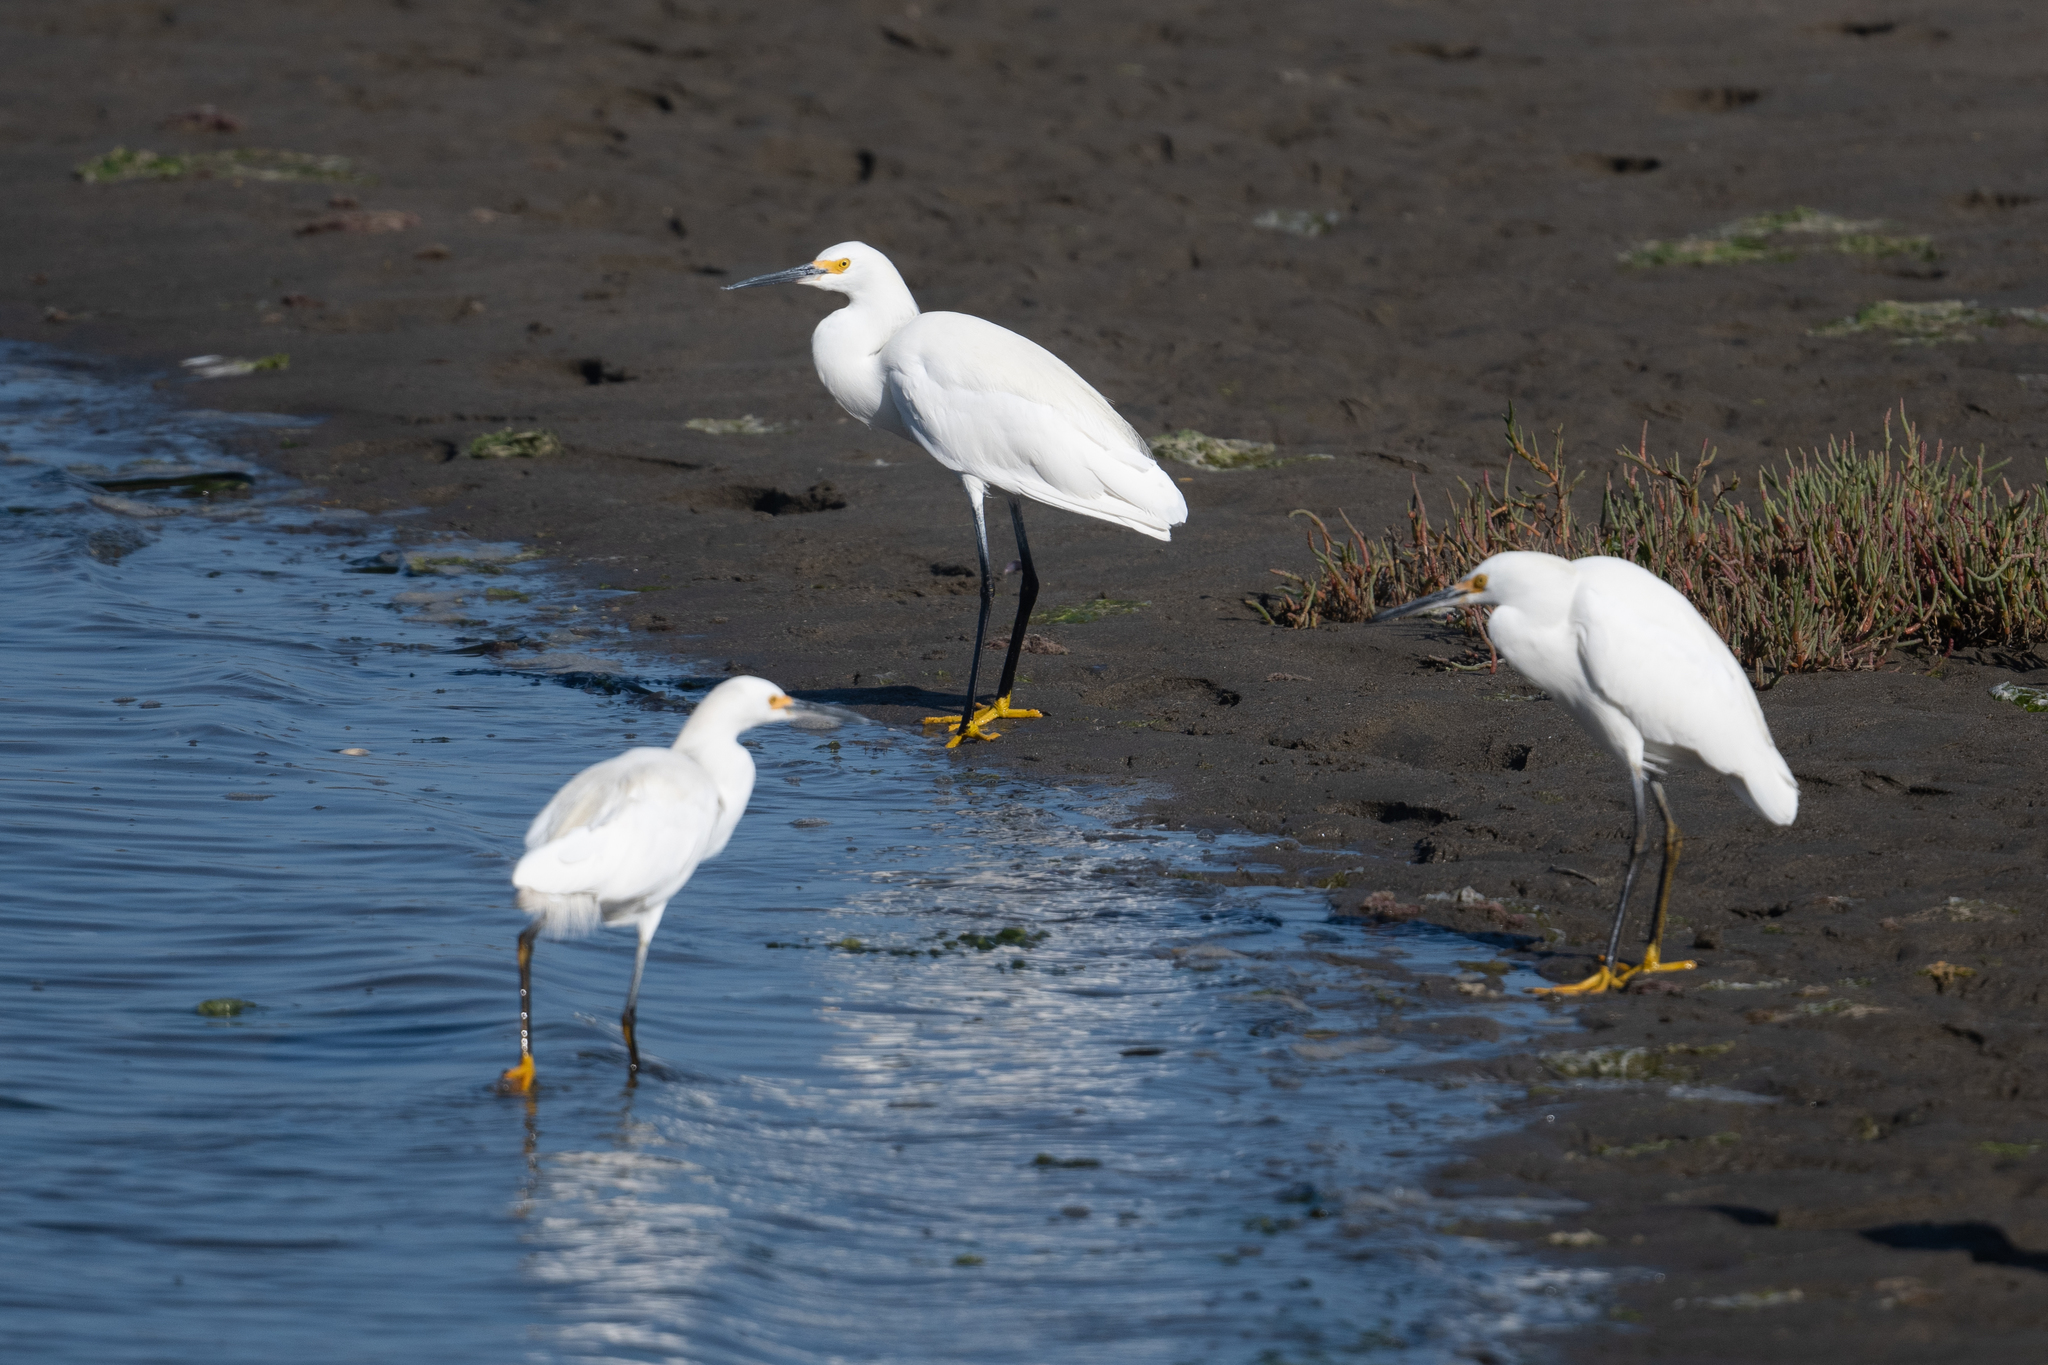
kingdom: Animalia
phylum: Chordata
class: Aves
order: Pelecaniformes
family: Ardeidae
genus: Egretta
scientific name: Egretta thula
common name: Snowy egret
